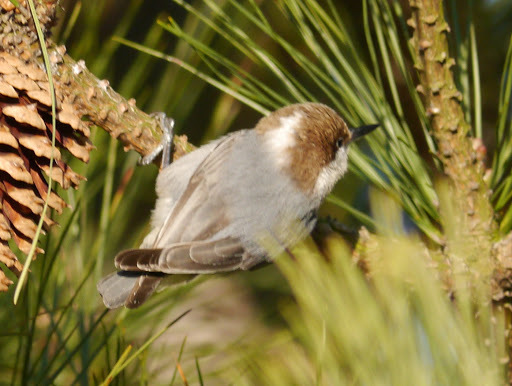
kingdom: Animalia
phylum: Chordata
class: Aves
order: Passeriformes
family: Sittidae
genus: Sitta
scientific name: Sitta pusilla
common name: Brown-headed nuthatch
